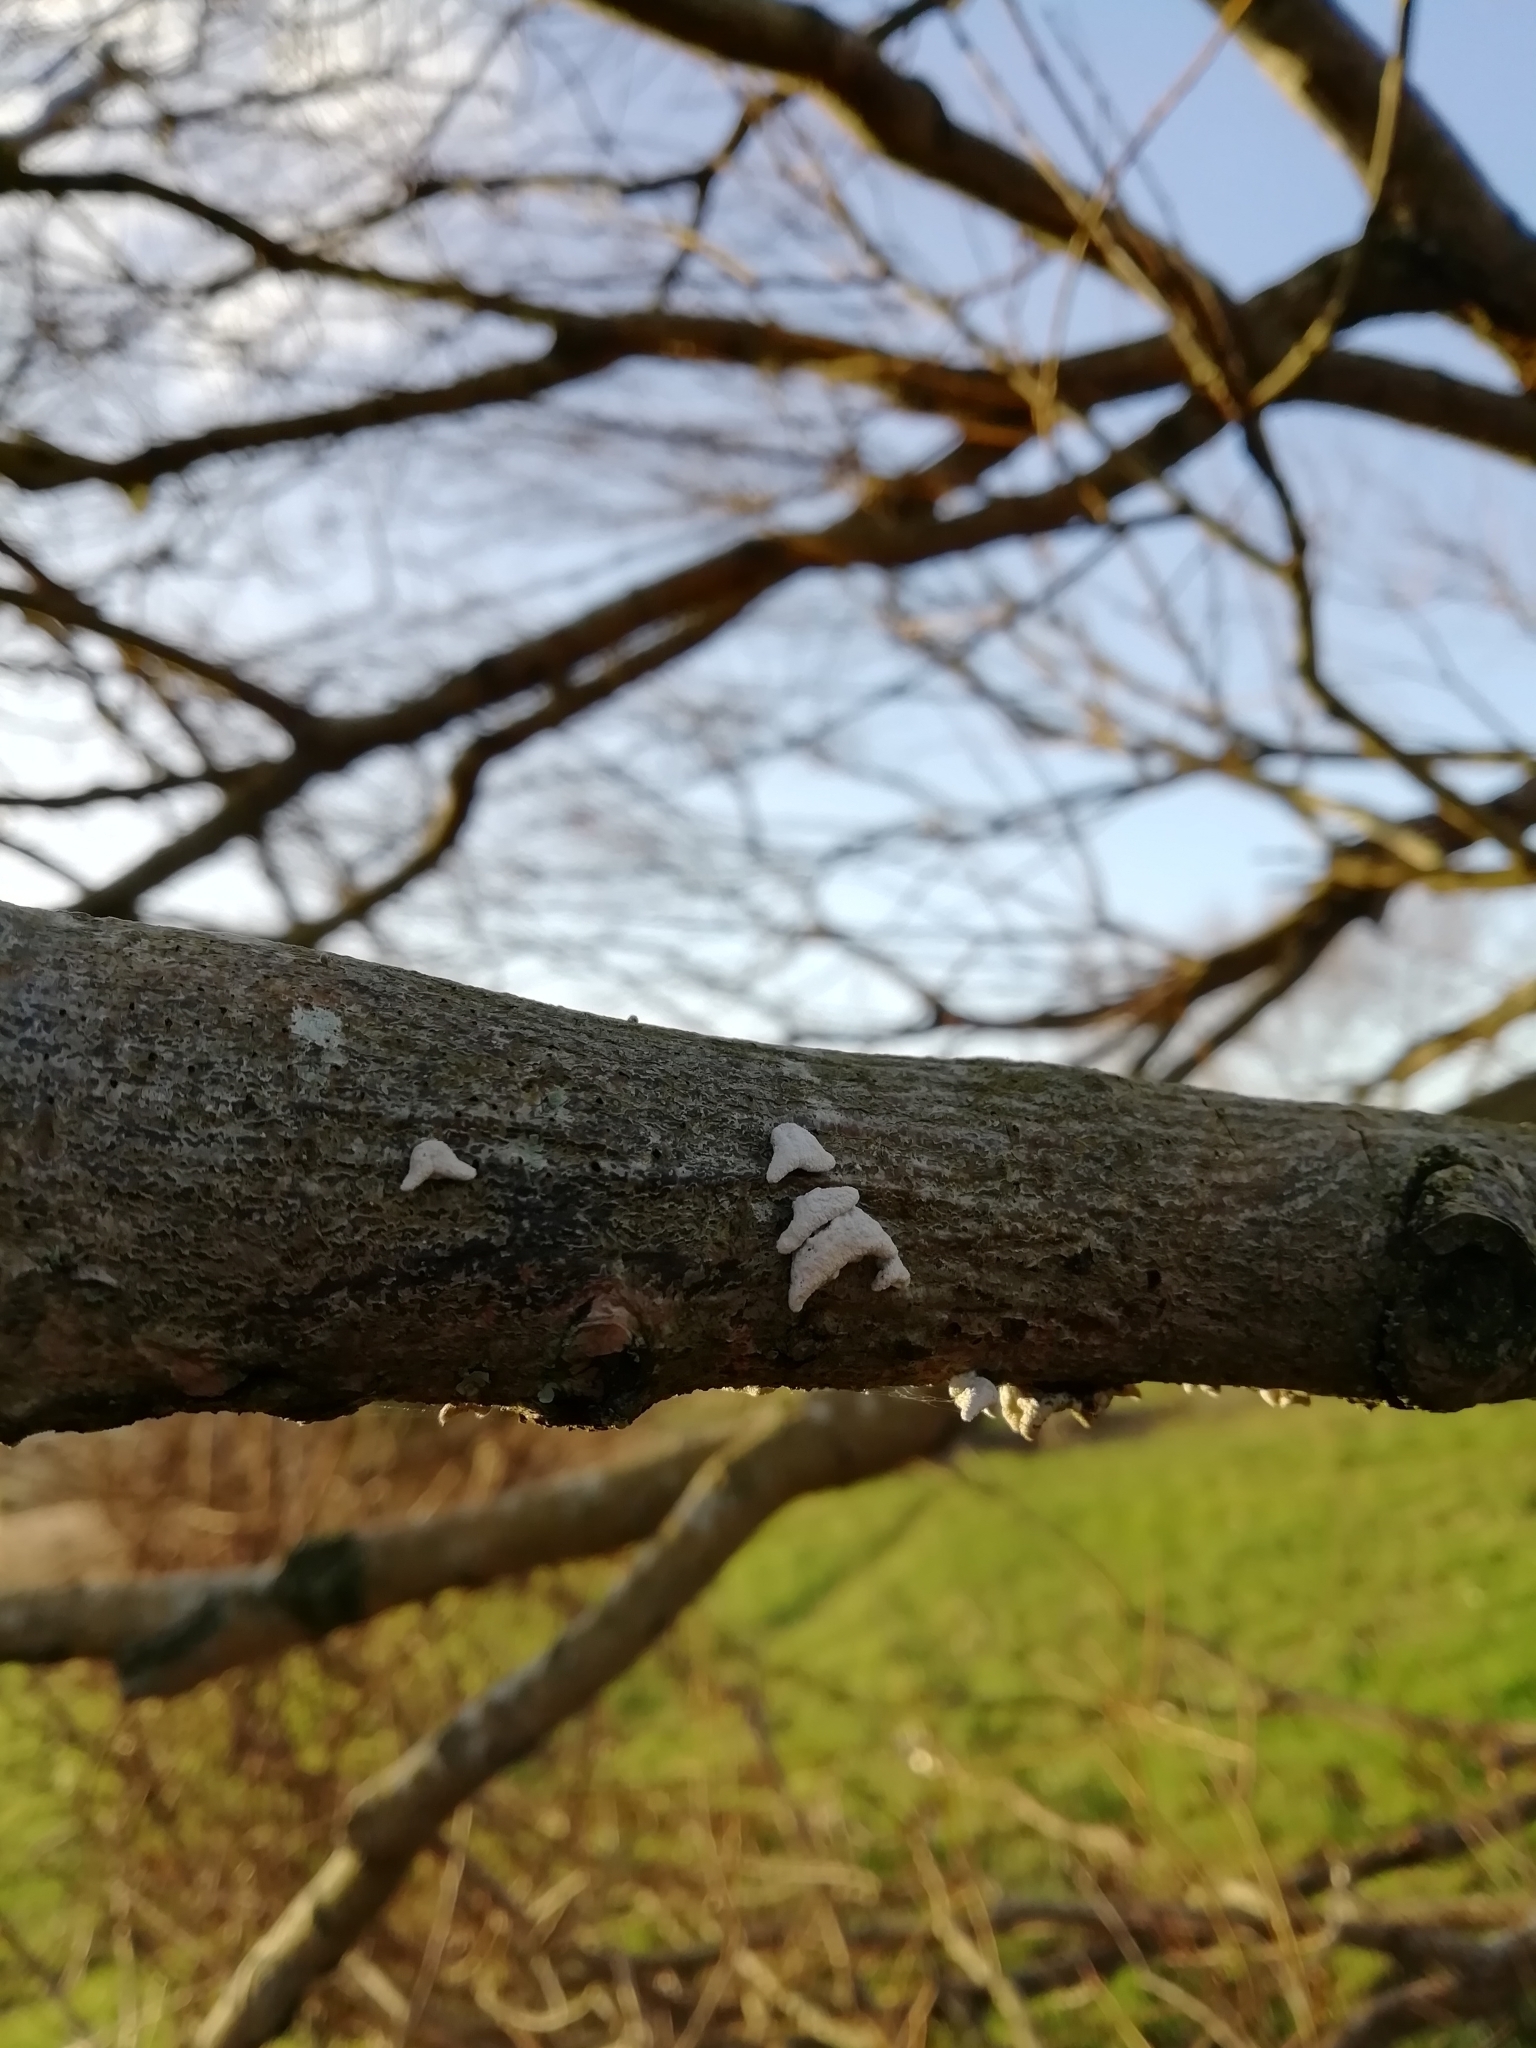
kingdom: Fungi
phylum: Basidiomycota
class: Agaricomycetes
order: Agaricales
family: Schizophyllaceae
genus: Schizophyllum
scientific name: Schizophyllum commune
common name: Common porecrust
